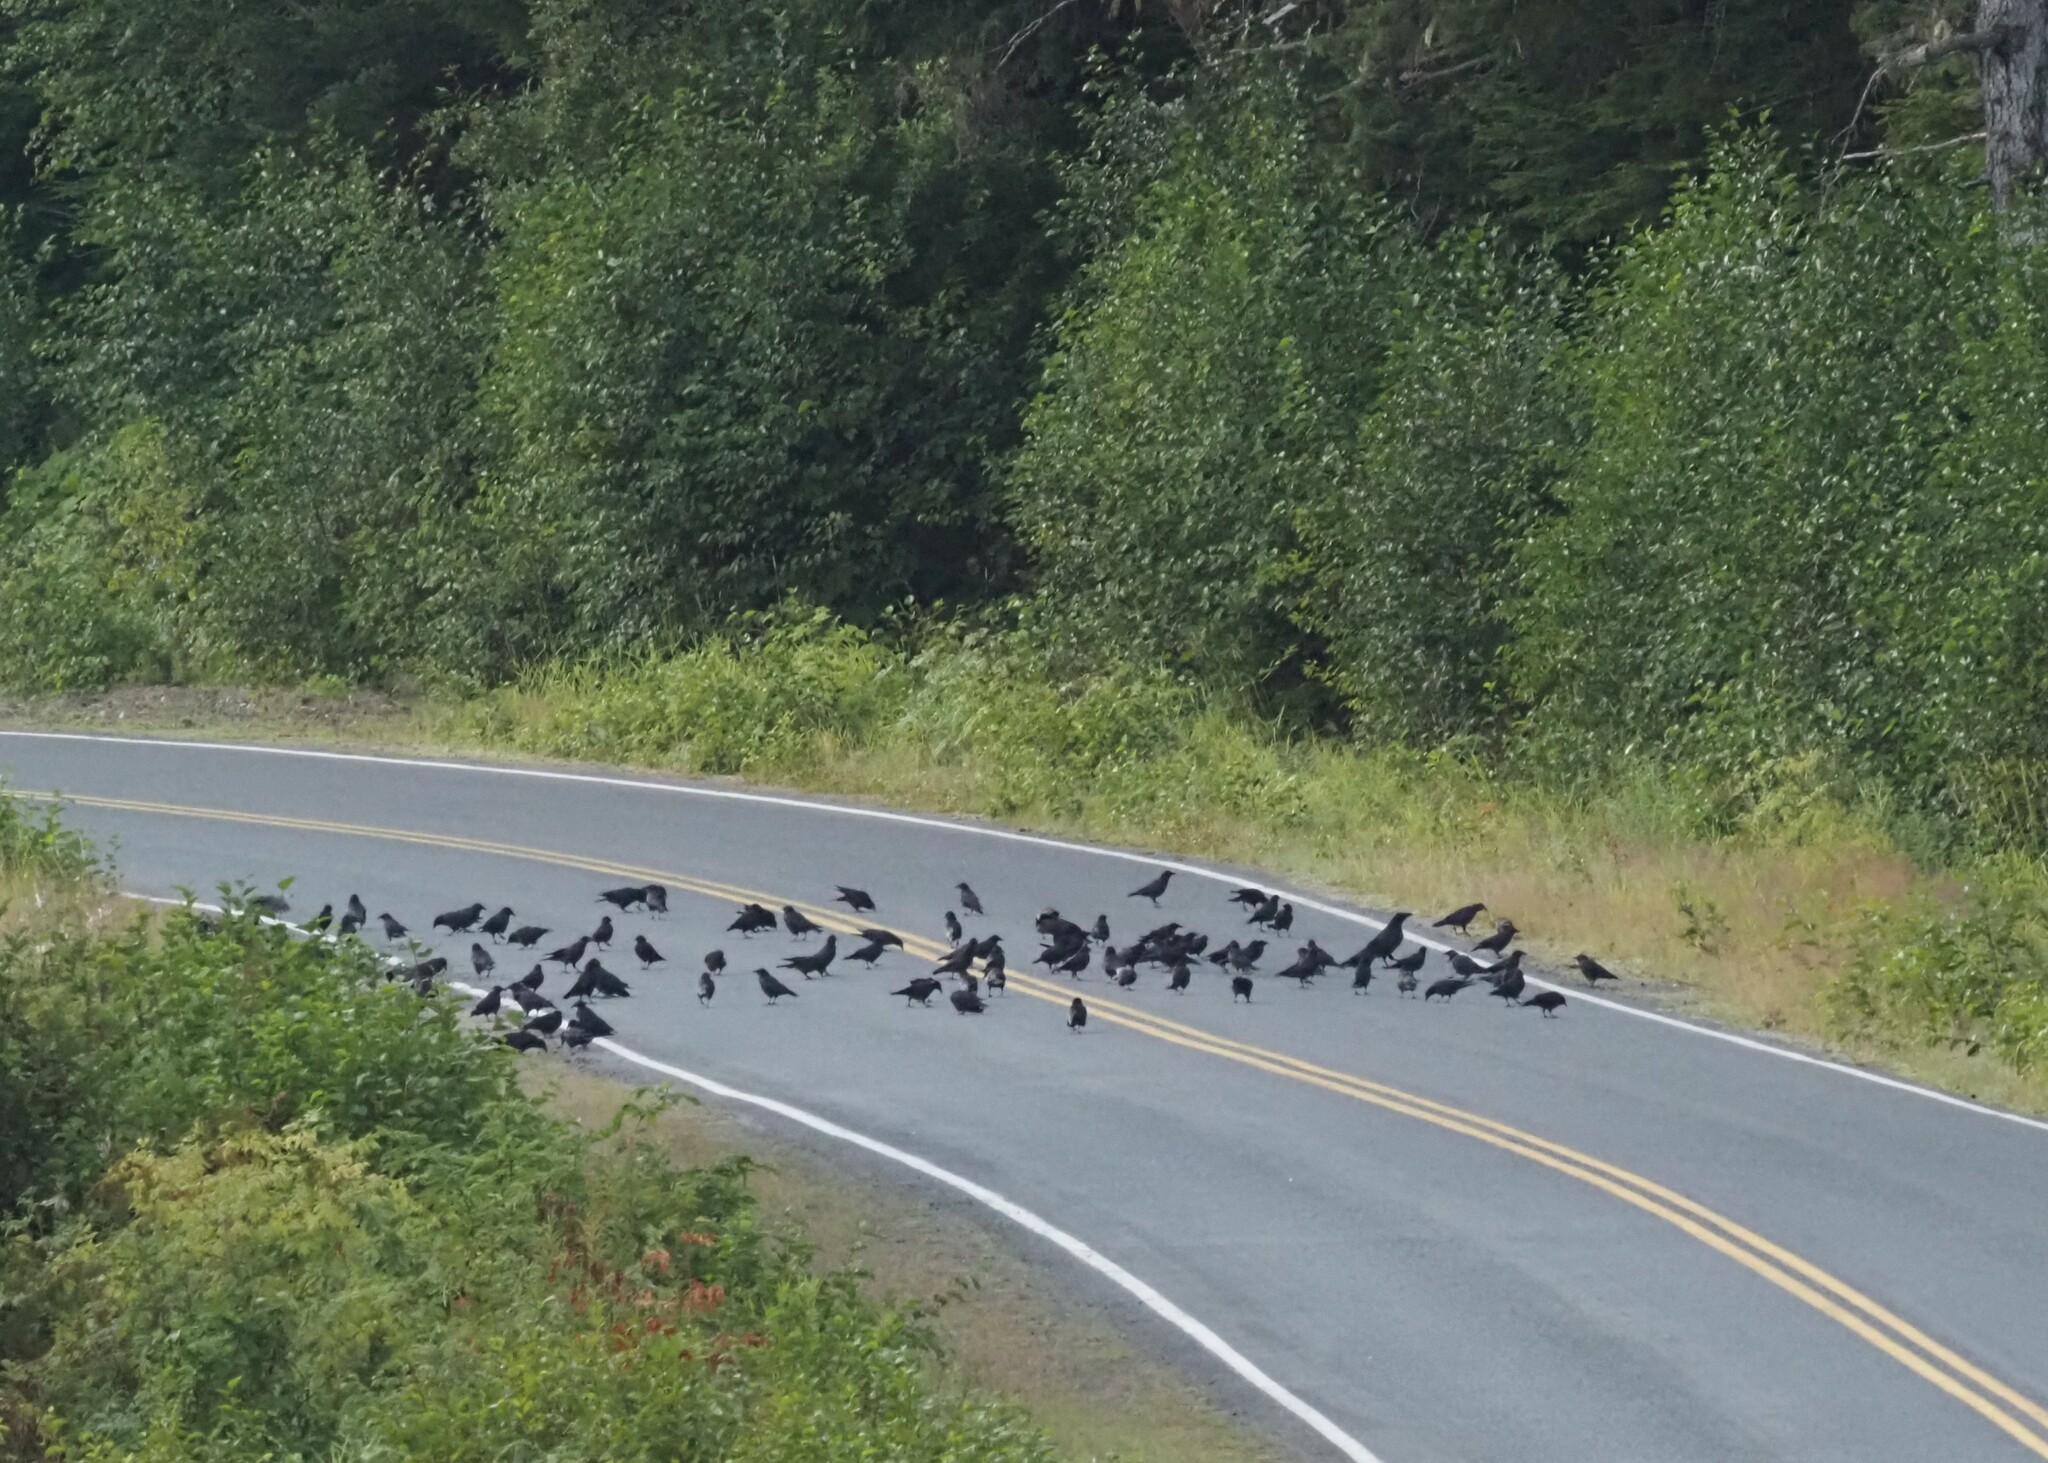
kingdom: Animalia
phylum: Chordata
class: Aves
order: Passeriformes
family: Corvidae
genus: Corvus
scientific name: Corvus brachyrhynchos
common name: American crow
